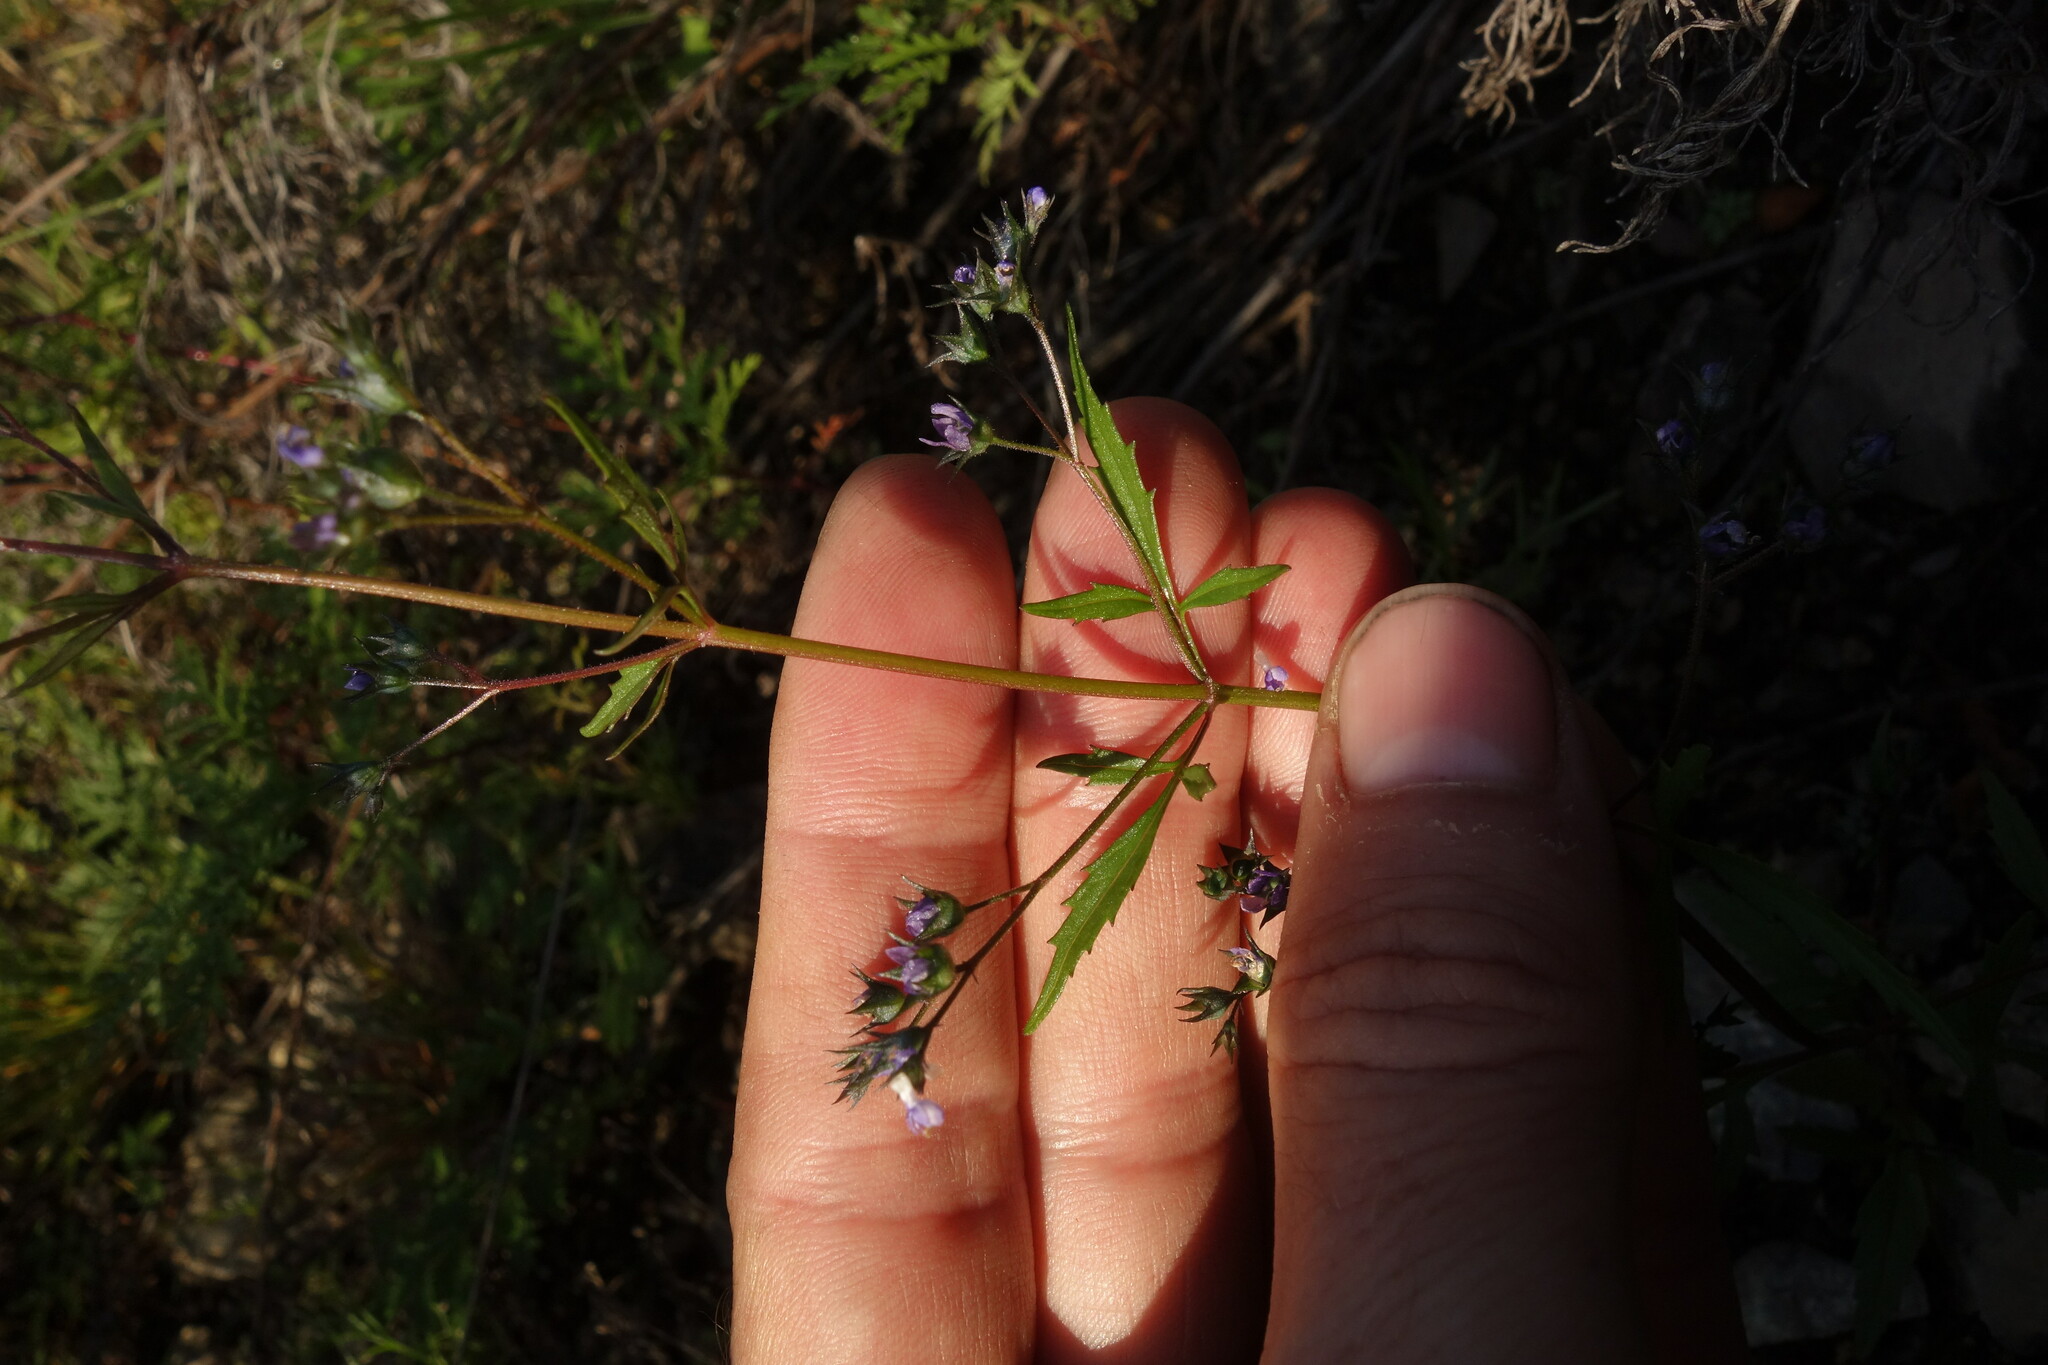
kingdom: Plantae
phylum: Tracheophyta
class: Magnoliopsida
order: Lamiales
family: Lamiaceae
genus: Amethystea
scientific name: Amethystea caerulea
